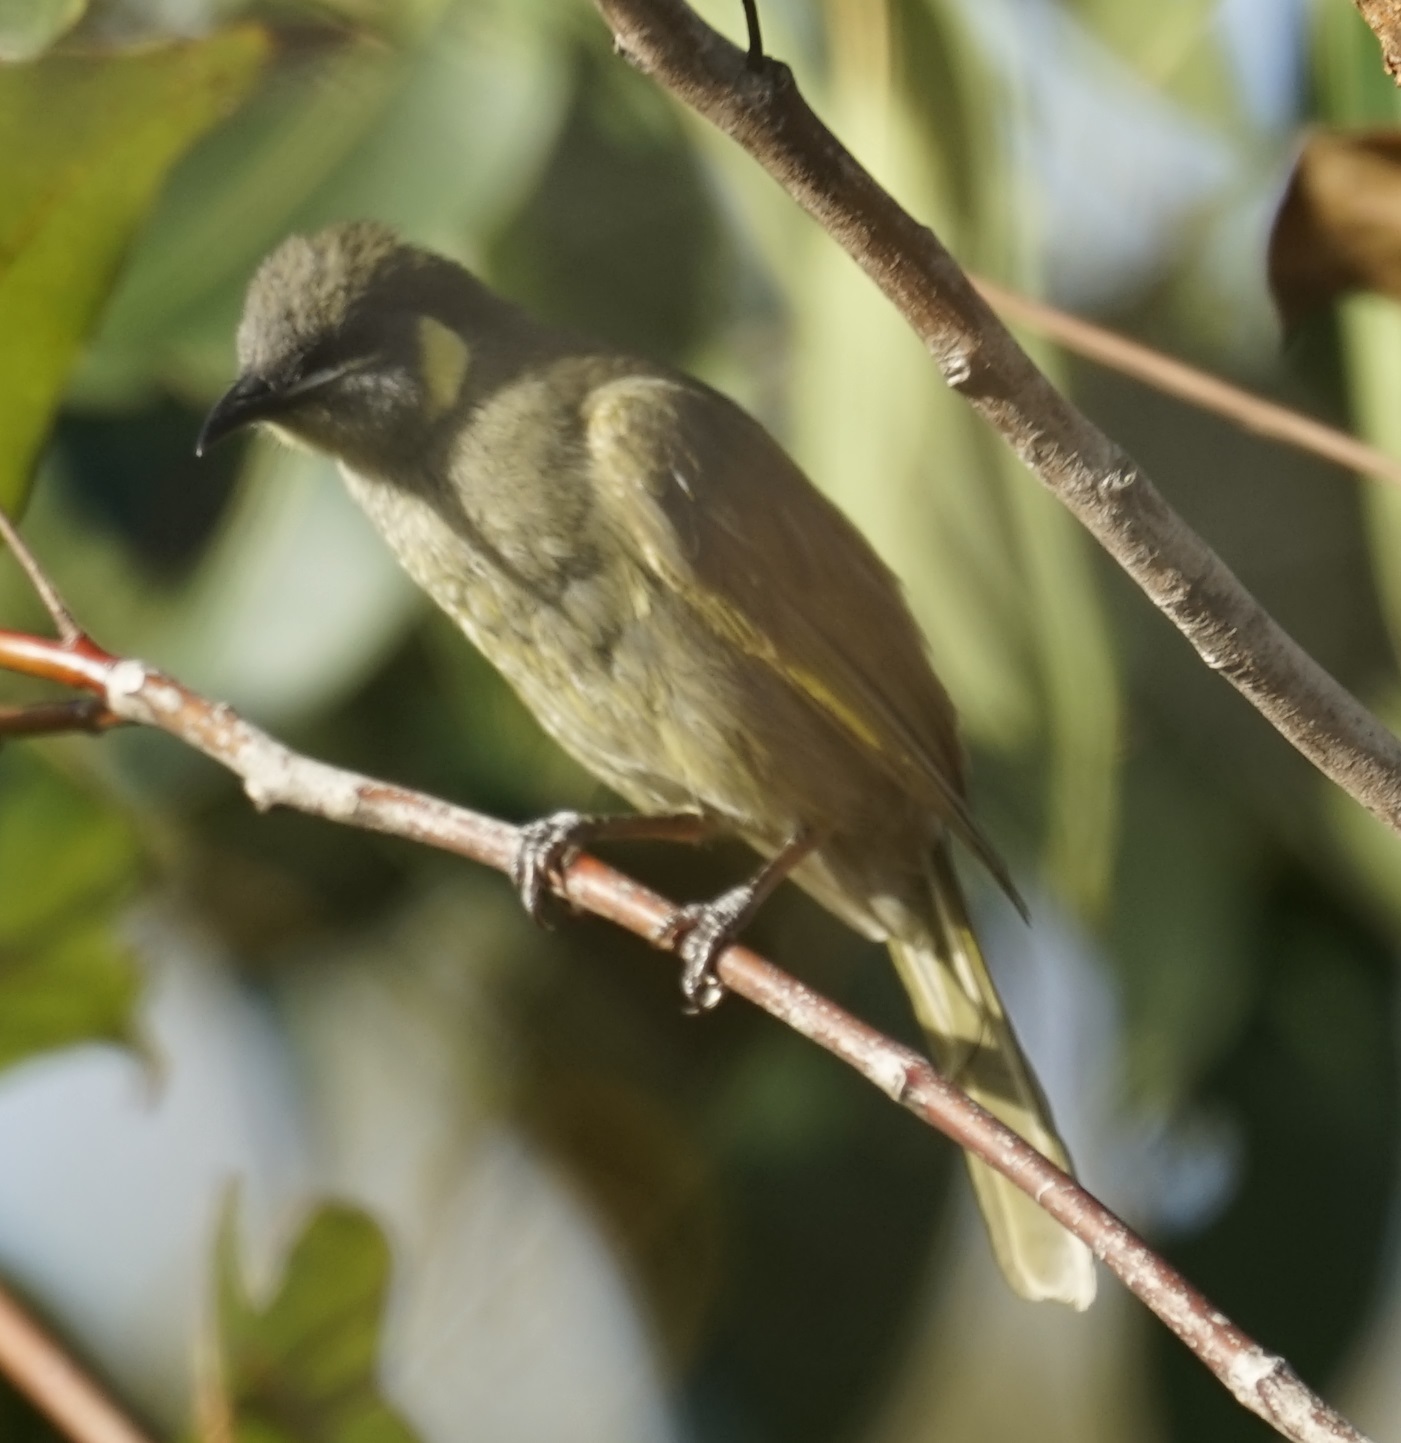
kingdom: Animalia
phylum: Chordata
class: Aves
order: Passeriformes
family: Meliphagidae
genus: Meliphaga
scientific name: Meliphaga lewinii
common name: Lewin's honeyeater
